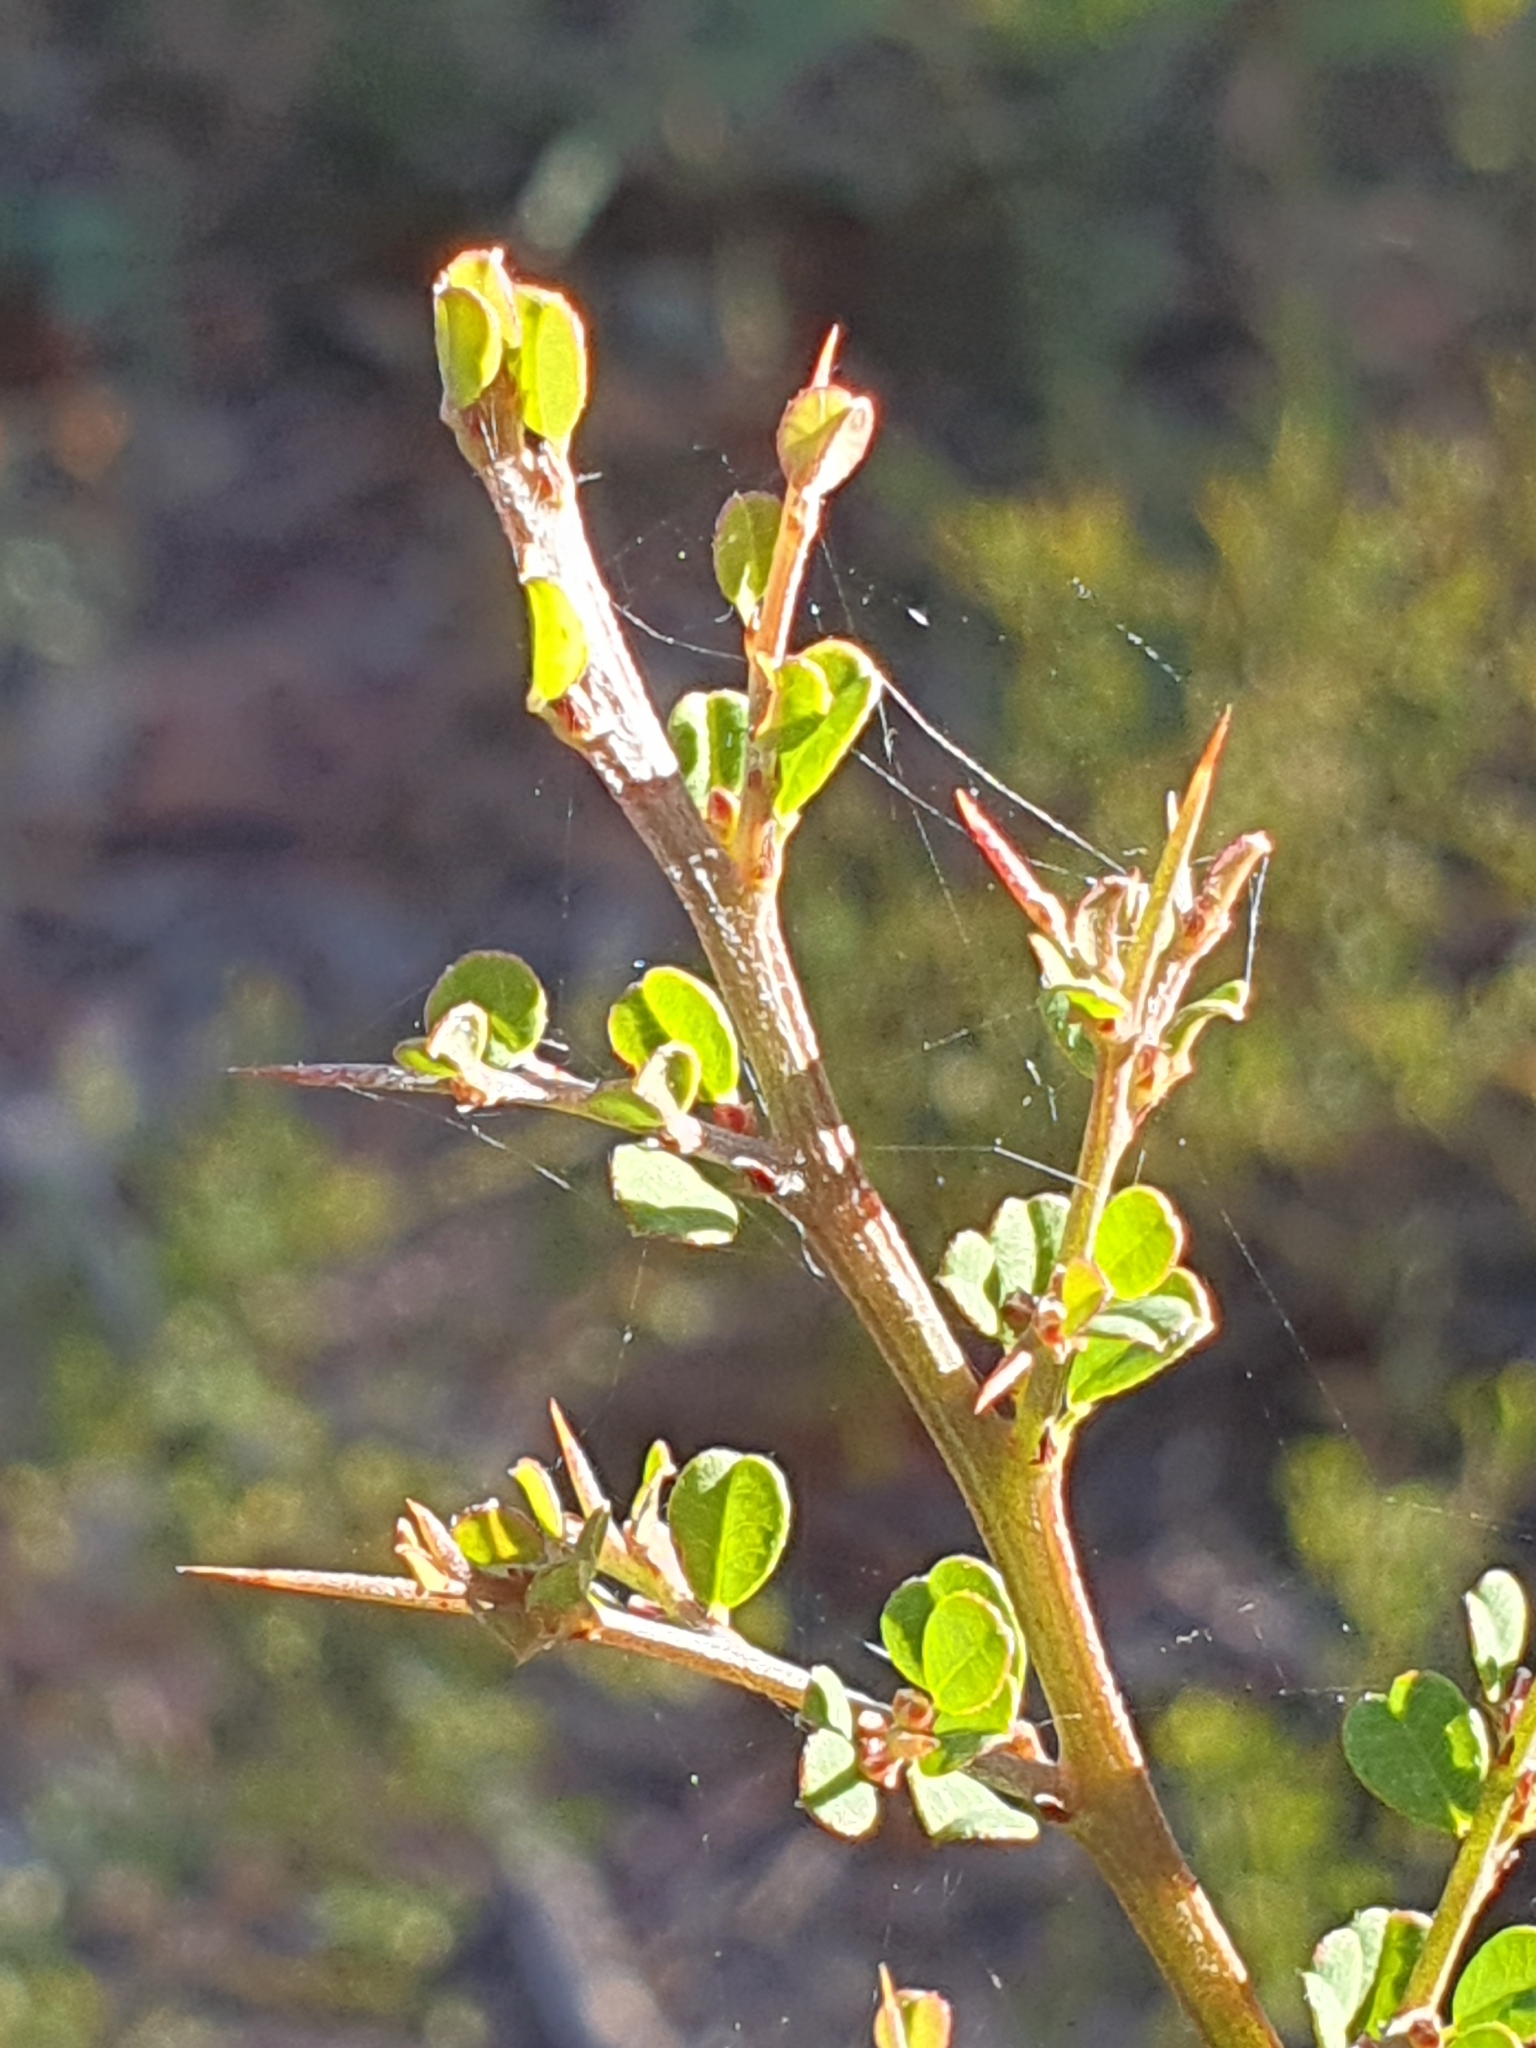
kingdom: Plantae
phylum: Tracheophyta
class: Magnoliopsida
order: Fabales
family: Fabaceae
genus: Bossiaea
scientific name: Bossiaea obcordata
